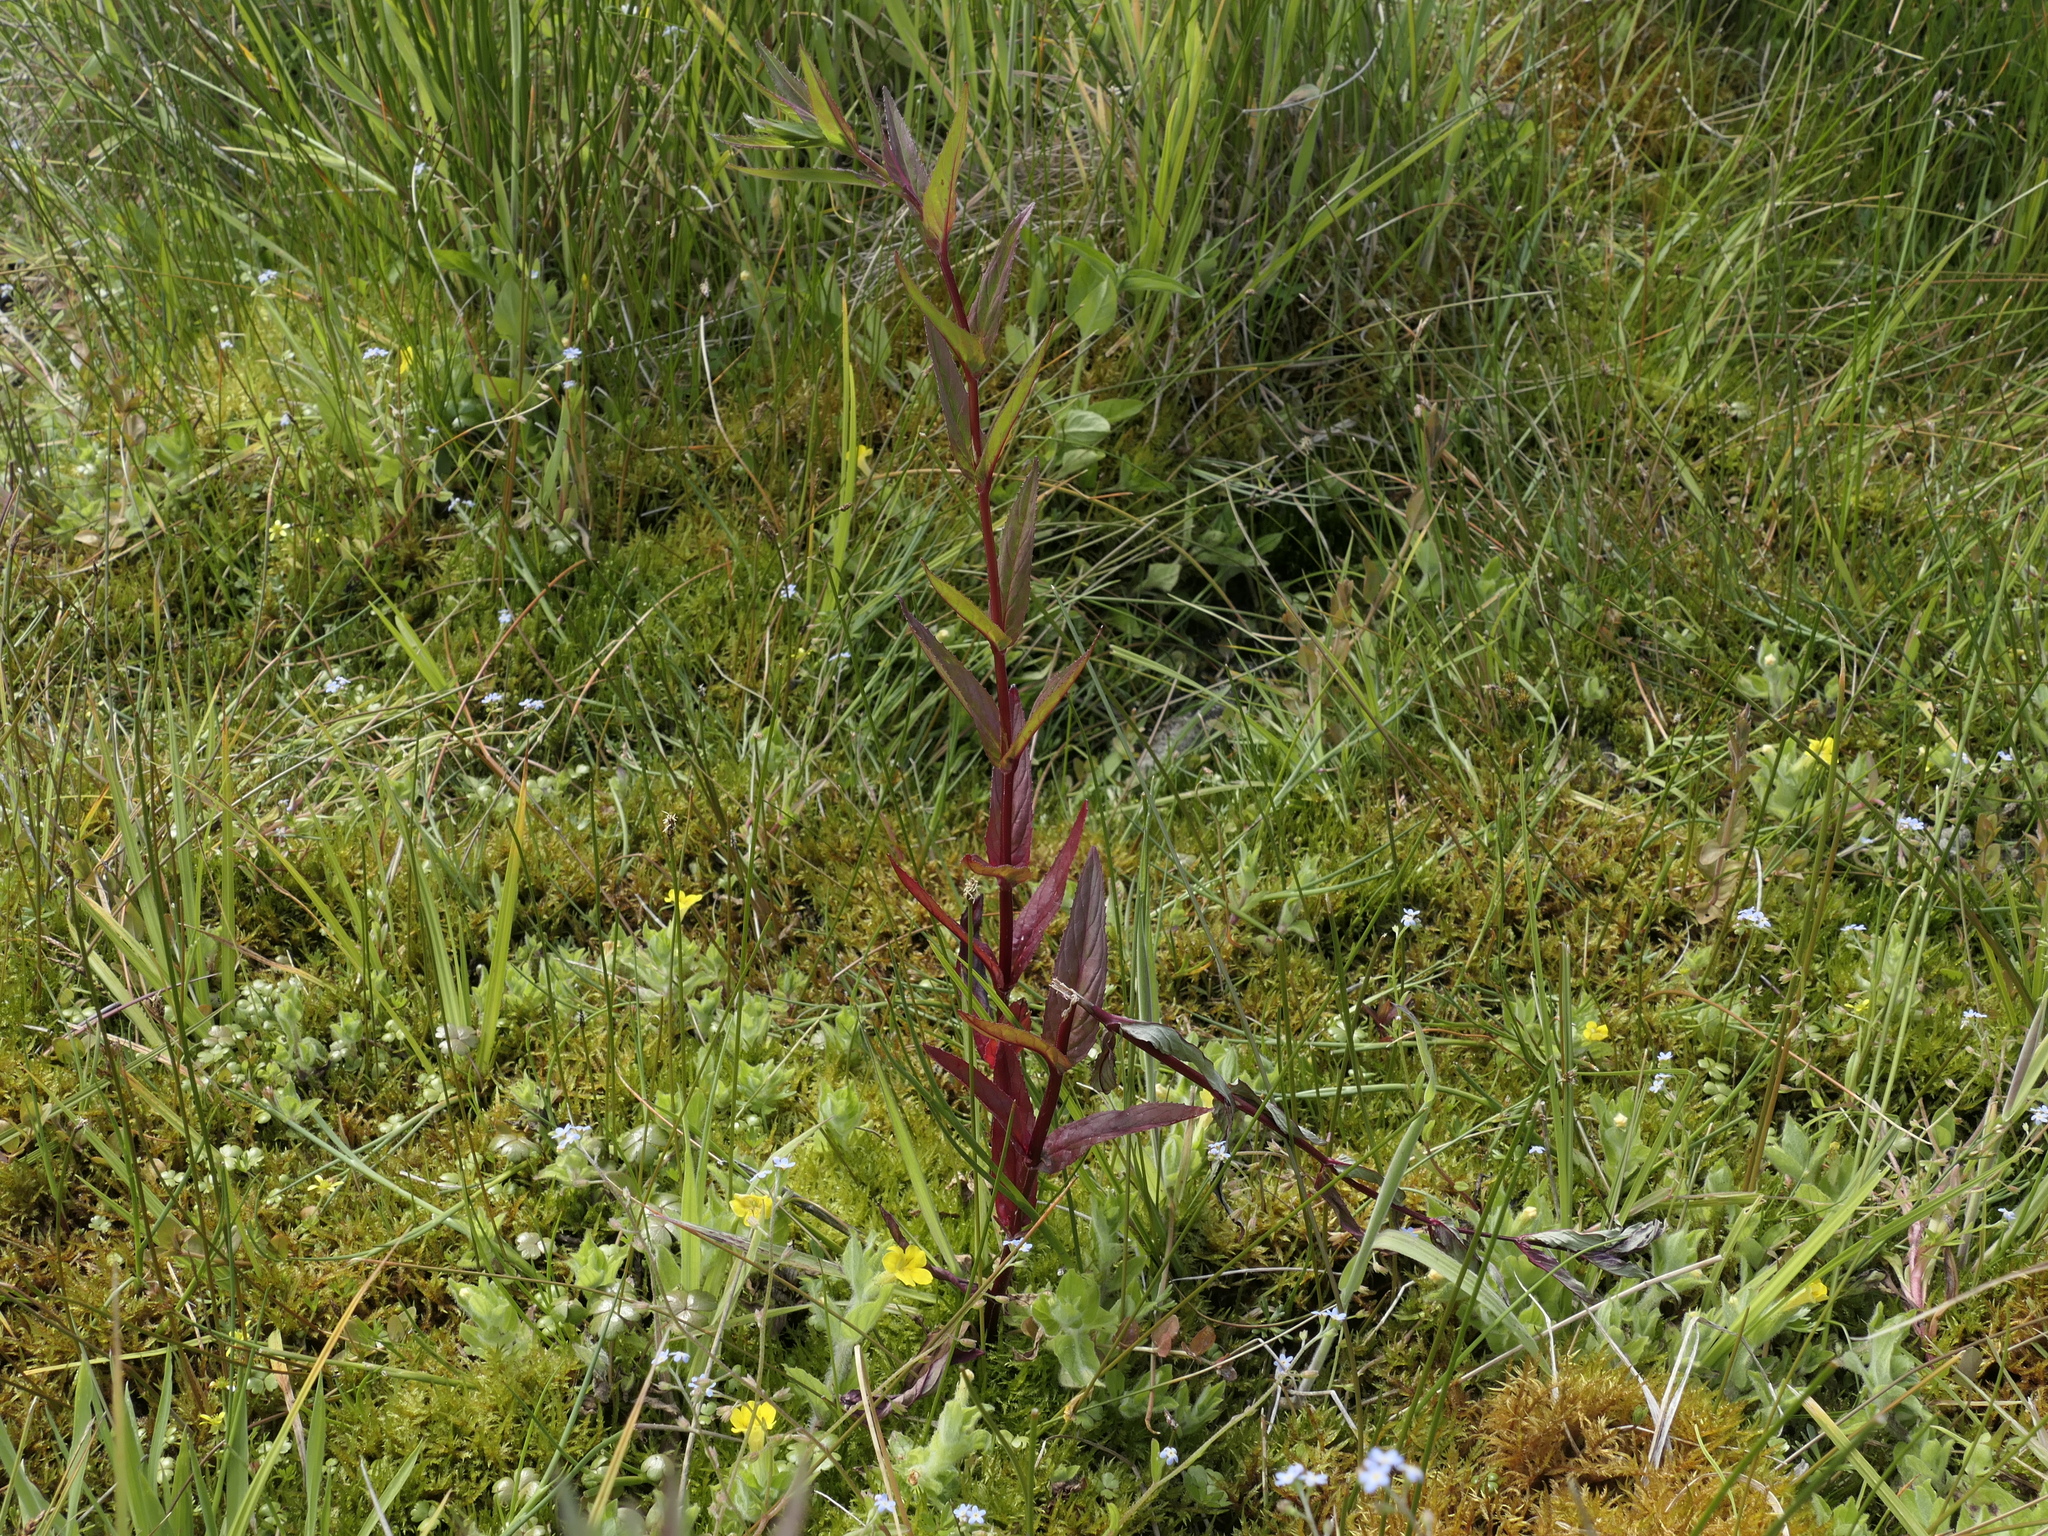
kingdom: Plantae
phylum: Tracheophyta
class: Magnoliopsida
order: Myrtales
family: Onagraceae
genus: Epilobium
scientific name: Epilobium ciliatum
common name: American willowherb
